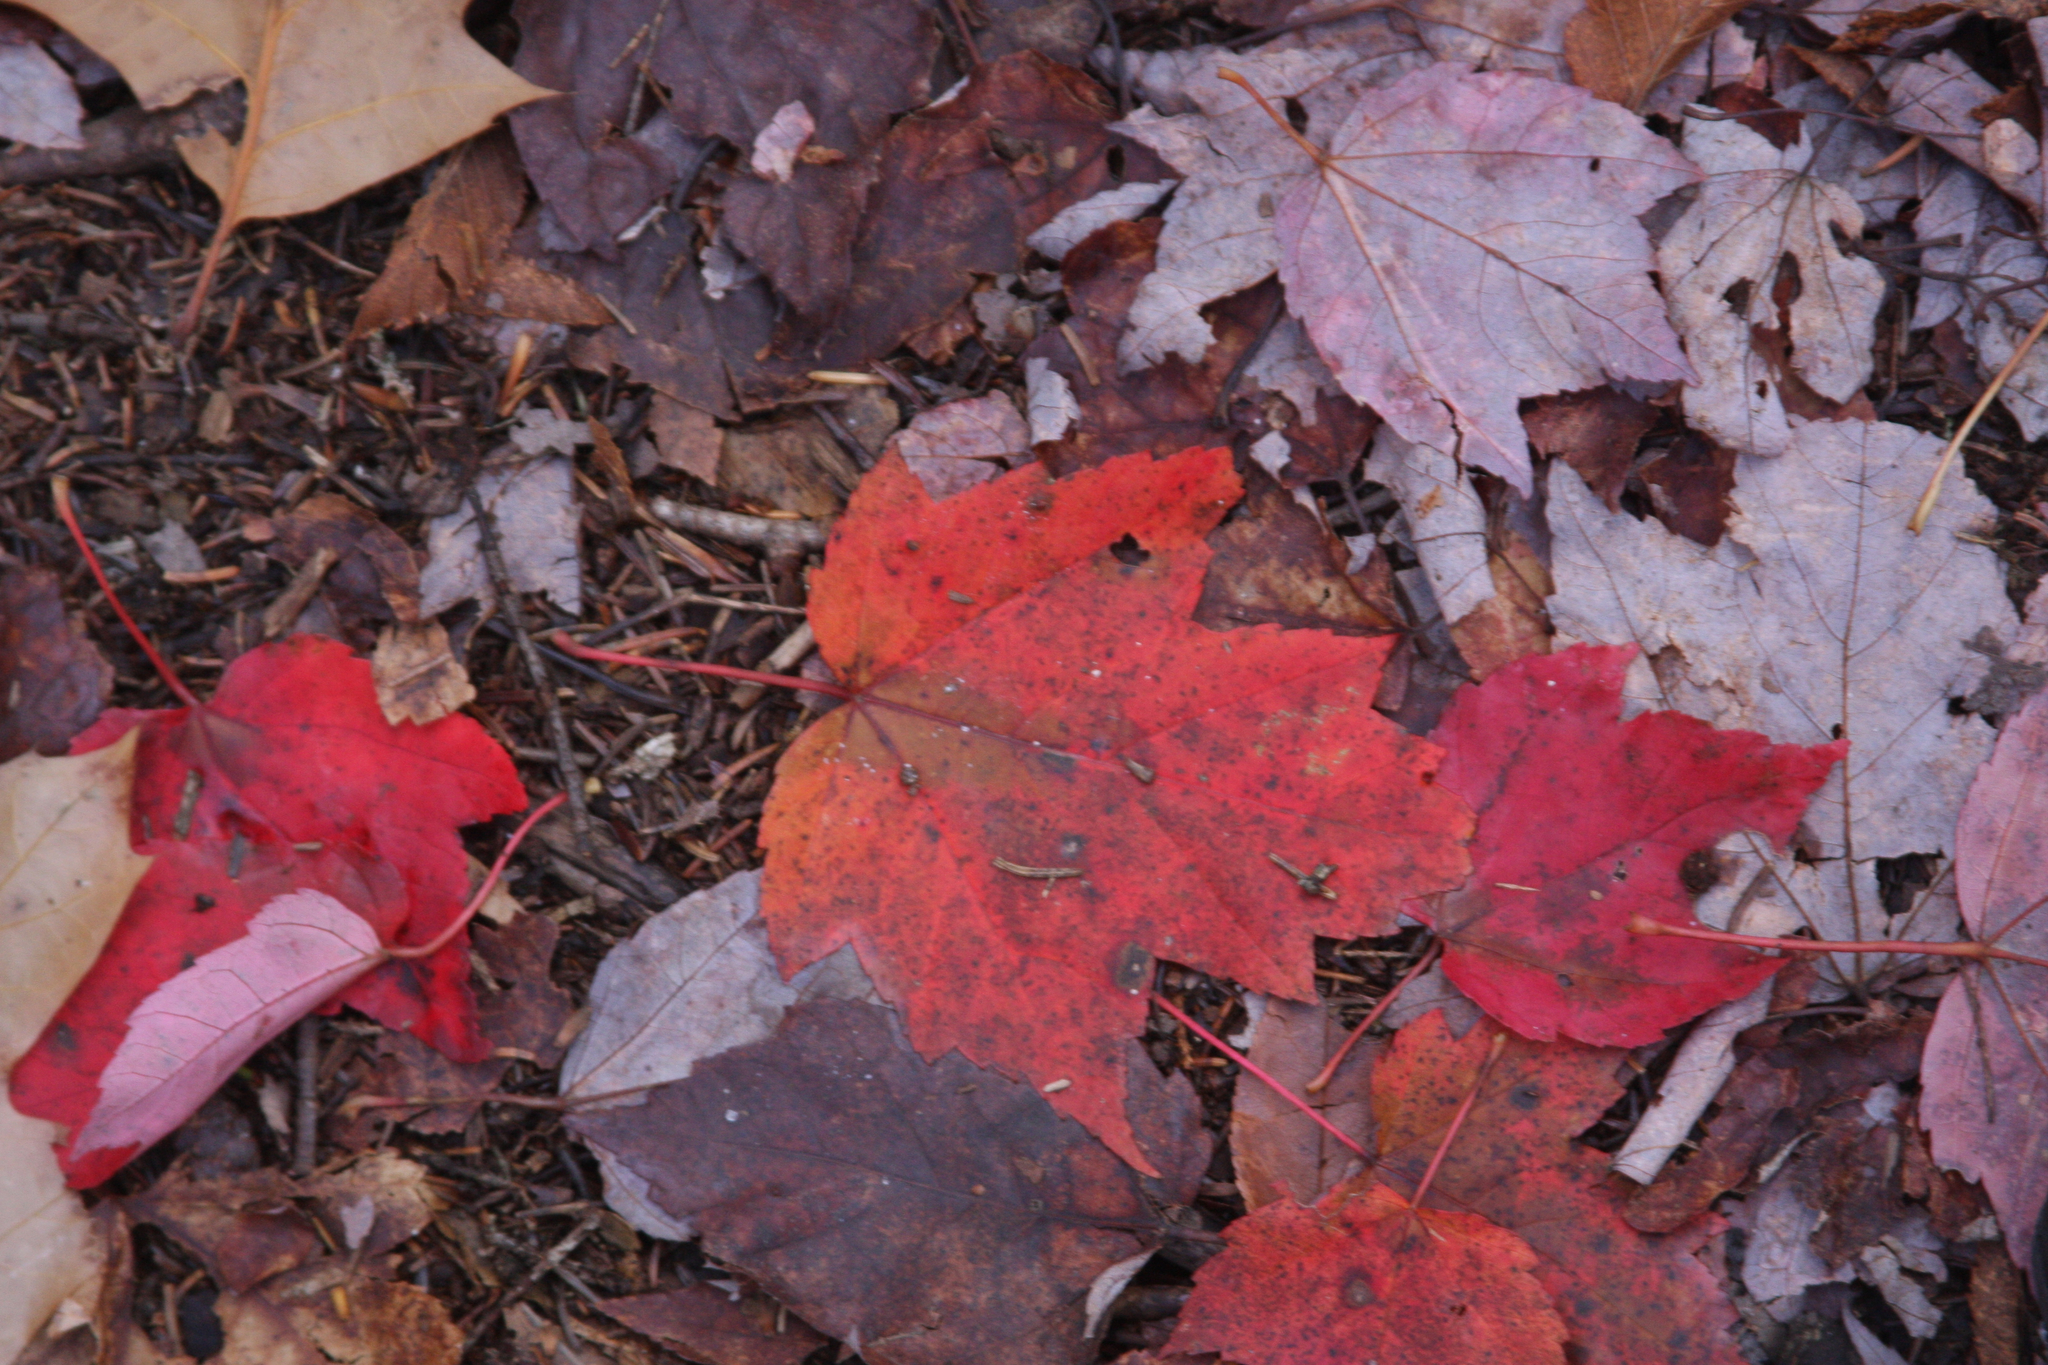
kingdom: Plantae
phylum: Tracheophyta
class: Magnoliopsida
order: Sapindales
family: Sapindaceae
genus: Acer
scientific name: Acer rubrum
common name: Red maple
